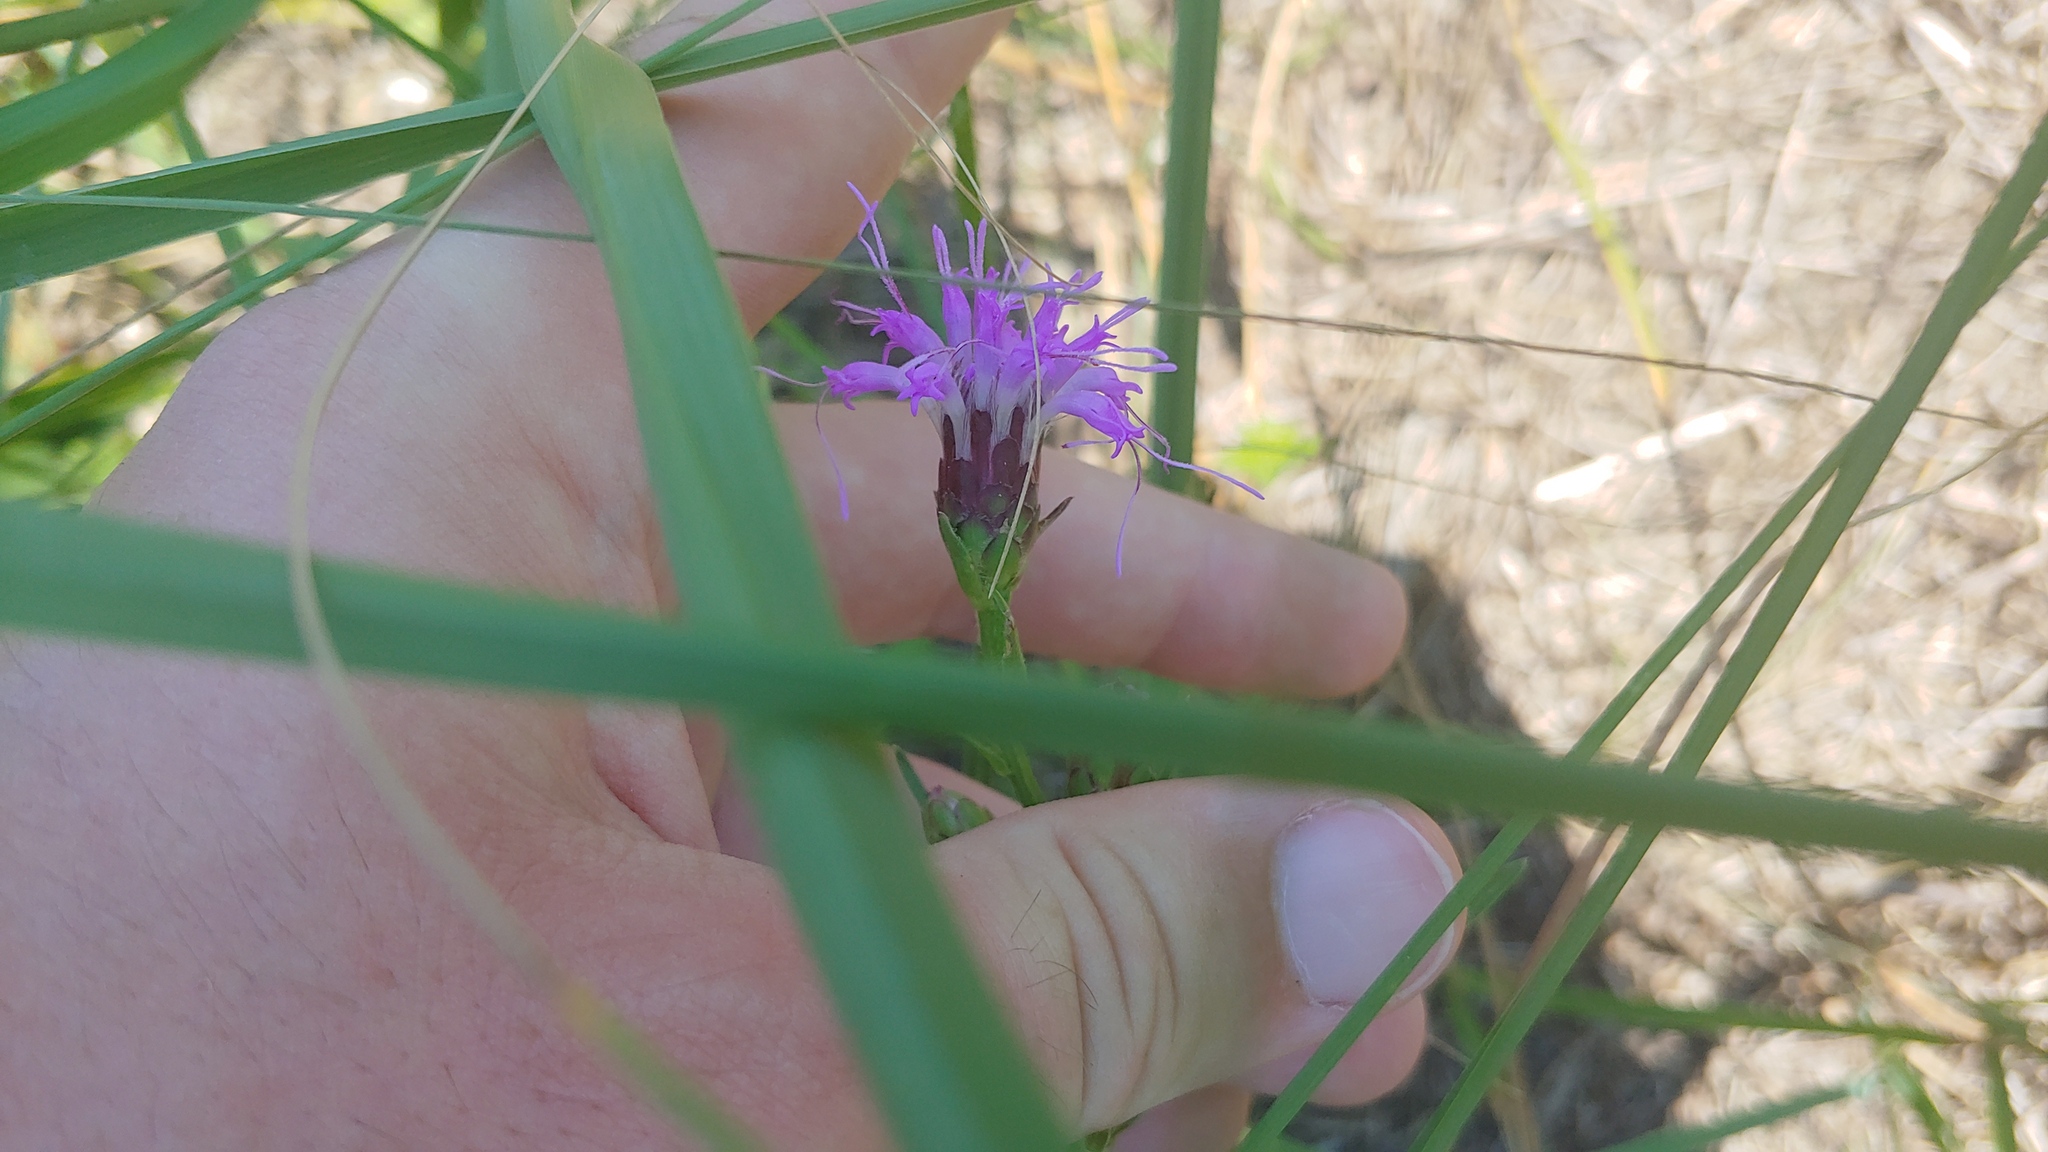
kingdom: Plantae
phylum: Tracheophyta
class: Magnoliopsida
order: Asterales
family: Asteraceae
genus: Liatris
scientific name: Liatris cylindracea
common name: Few-head blazingstar
